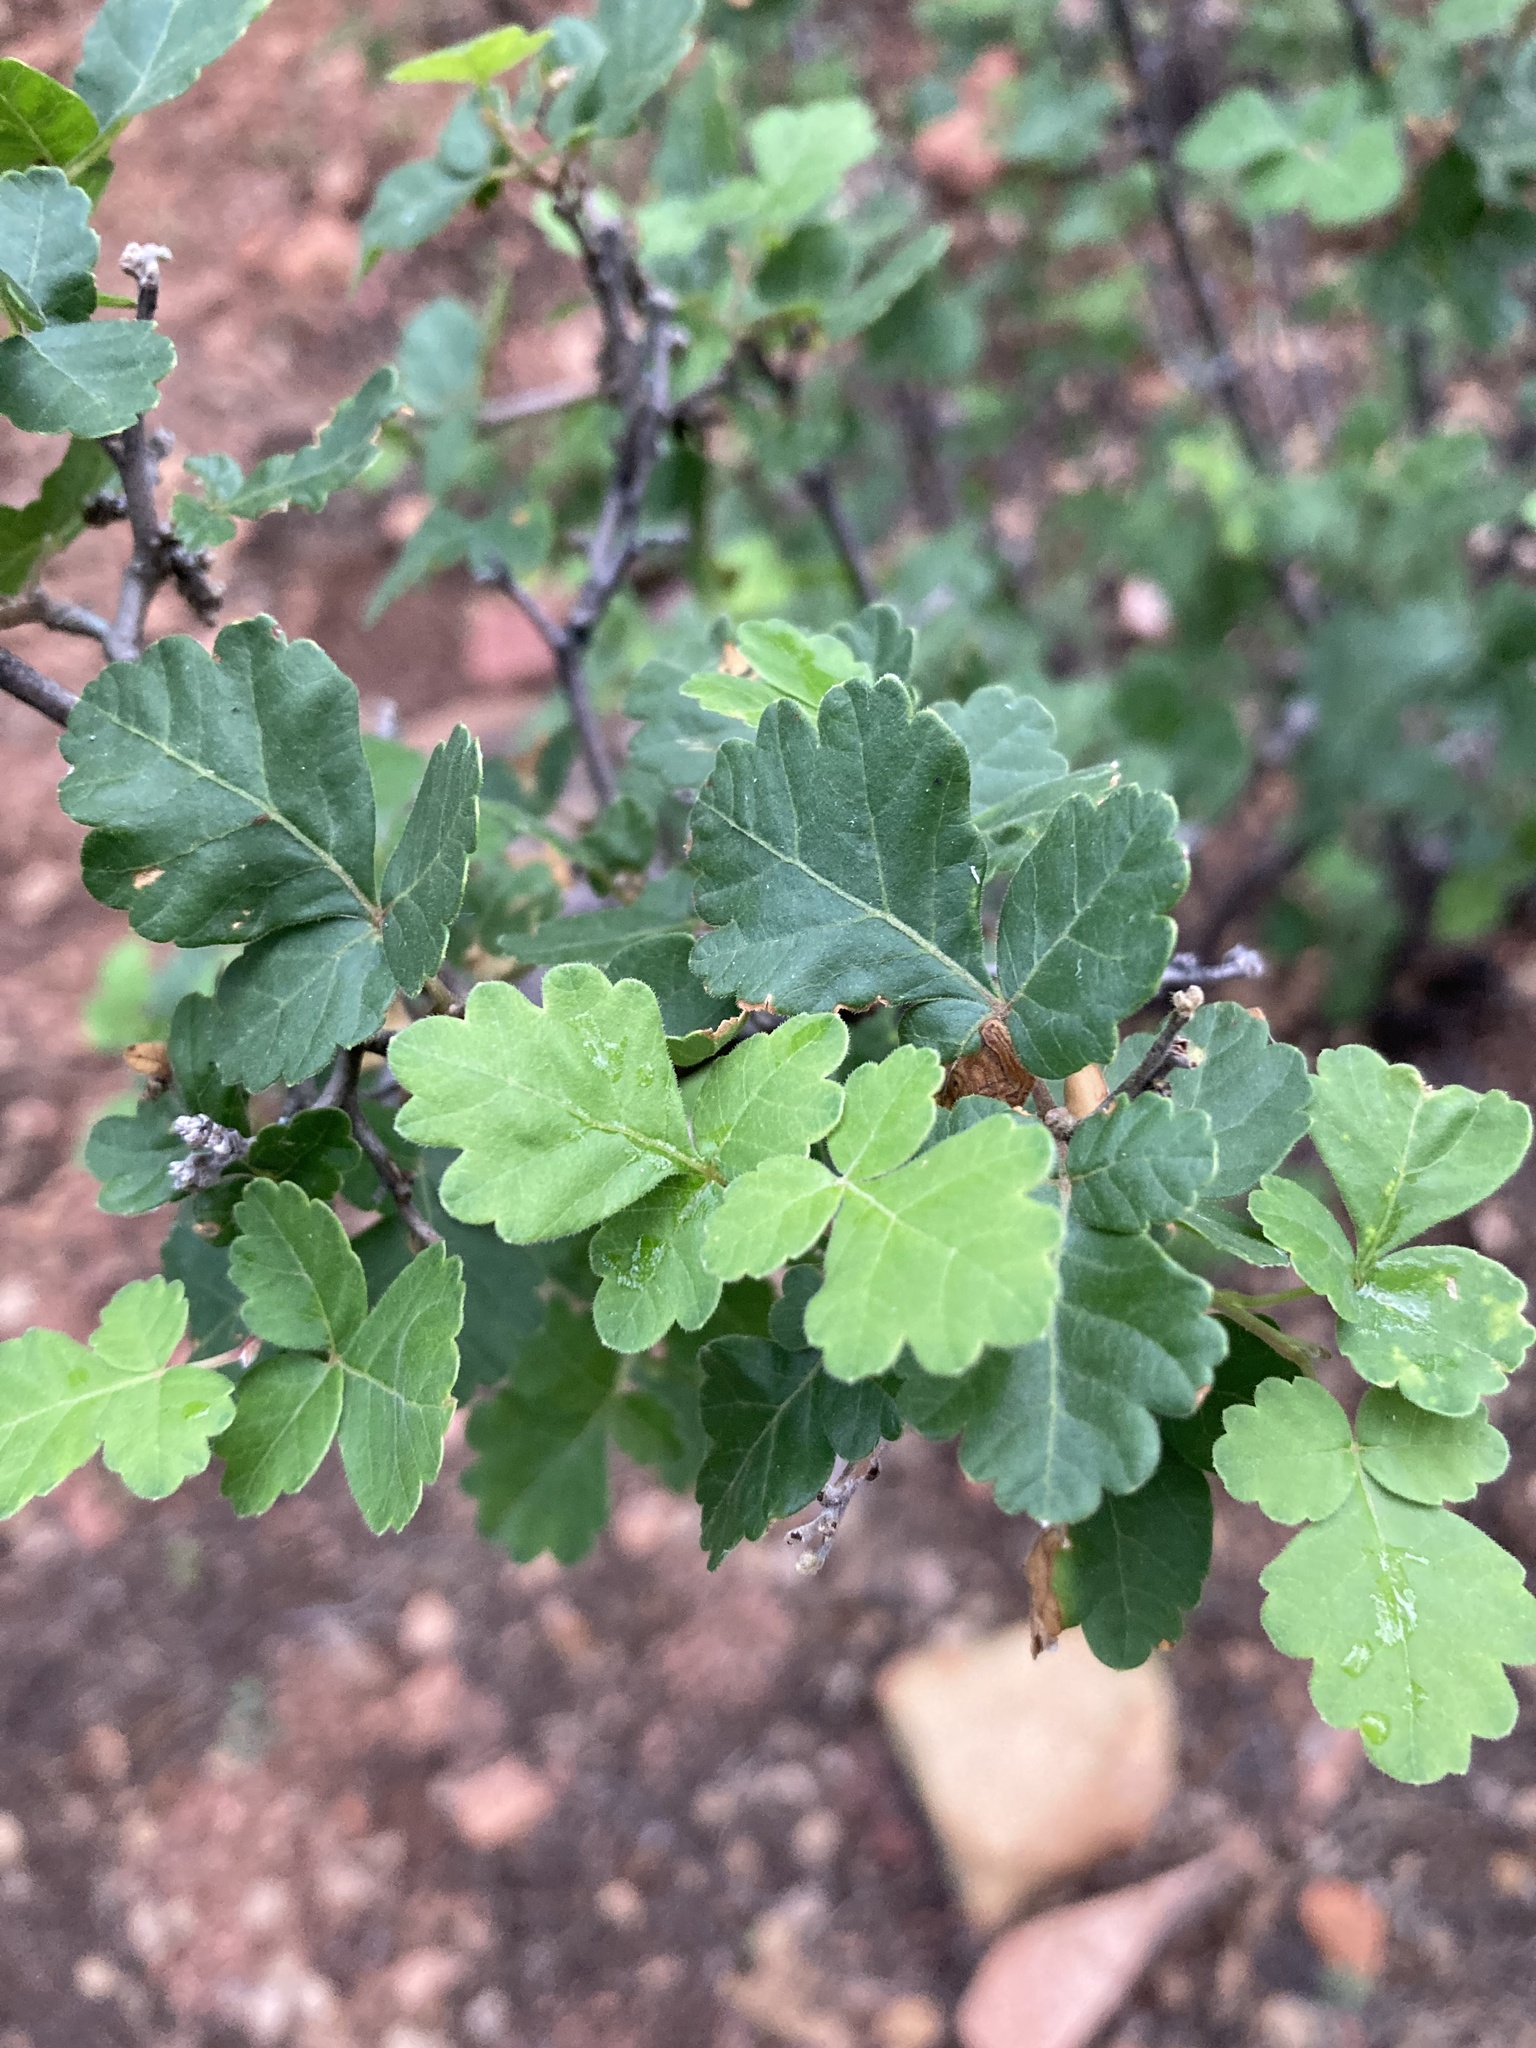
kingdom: Plantae
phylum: Tracheophyta
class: Magnoliopsida
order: Sapindales
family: Anacardiaceae
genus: Rhus
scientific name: Rhus aromatica
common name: Aromatic sumac
